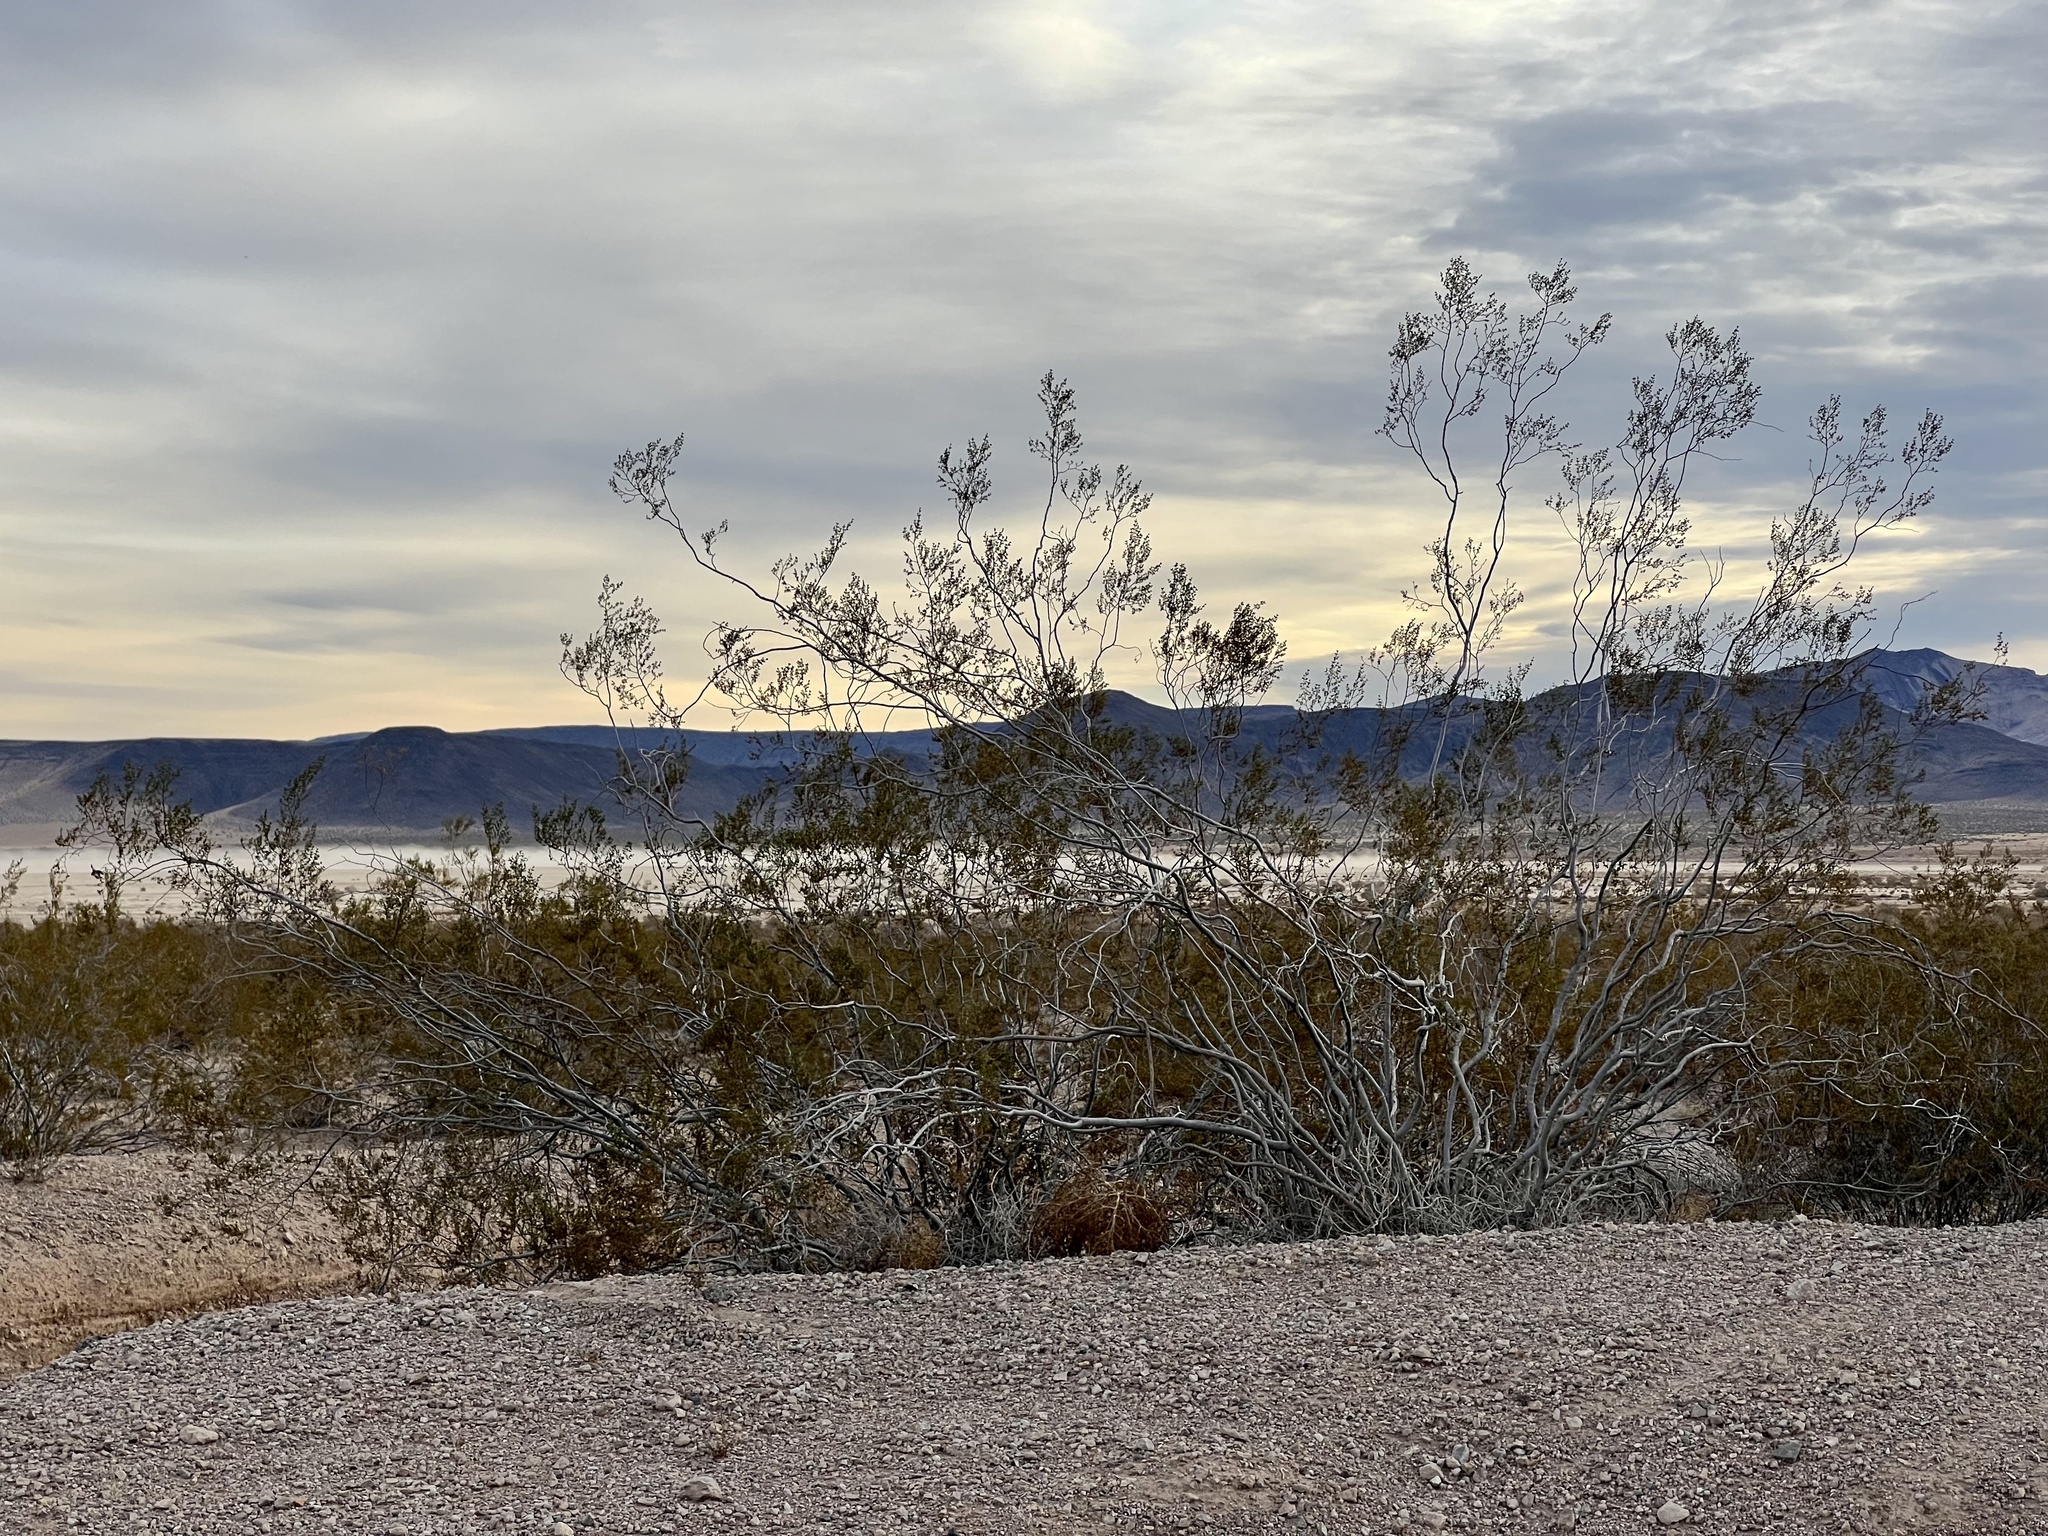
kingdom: Plantae
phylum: Tracheophyta
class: Magnoliopsida
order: Zygophyllales
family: Zygophyllaceae
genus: Larrea
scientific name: Larrea tridentata
